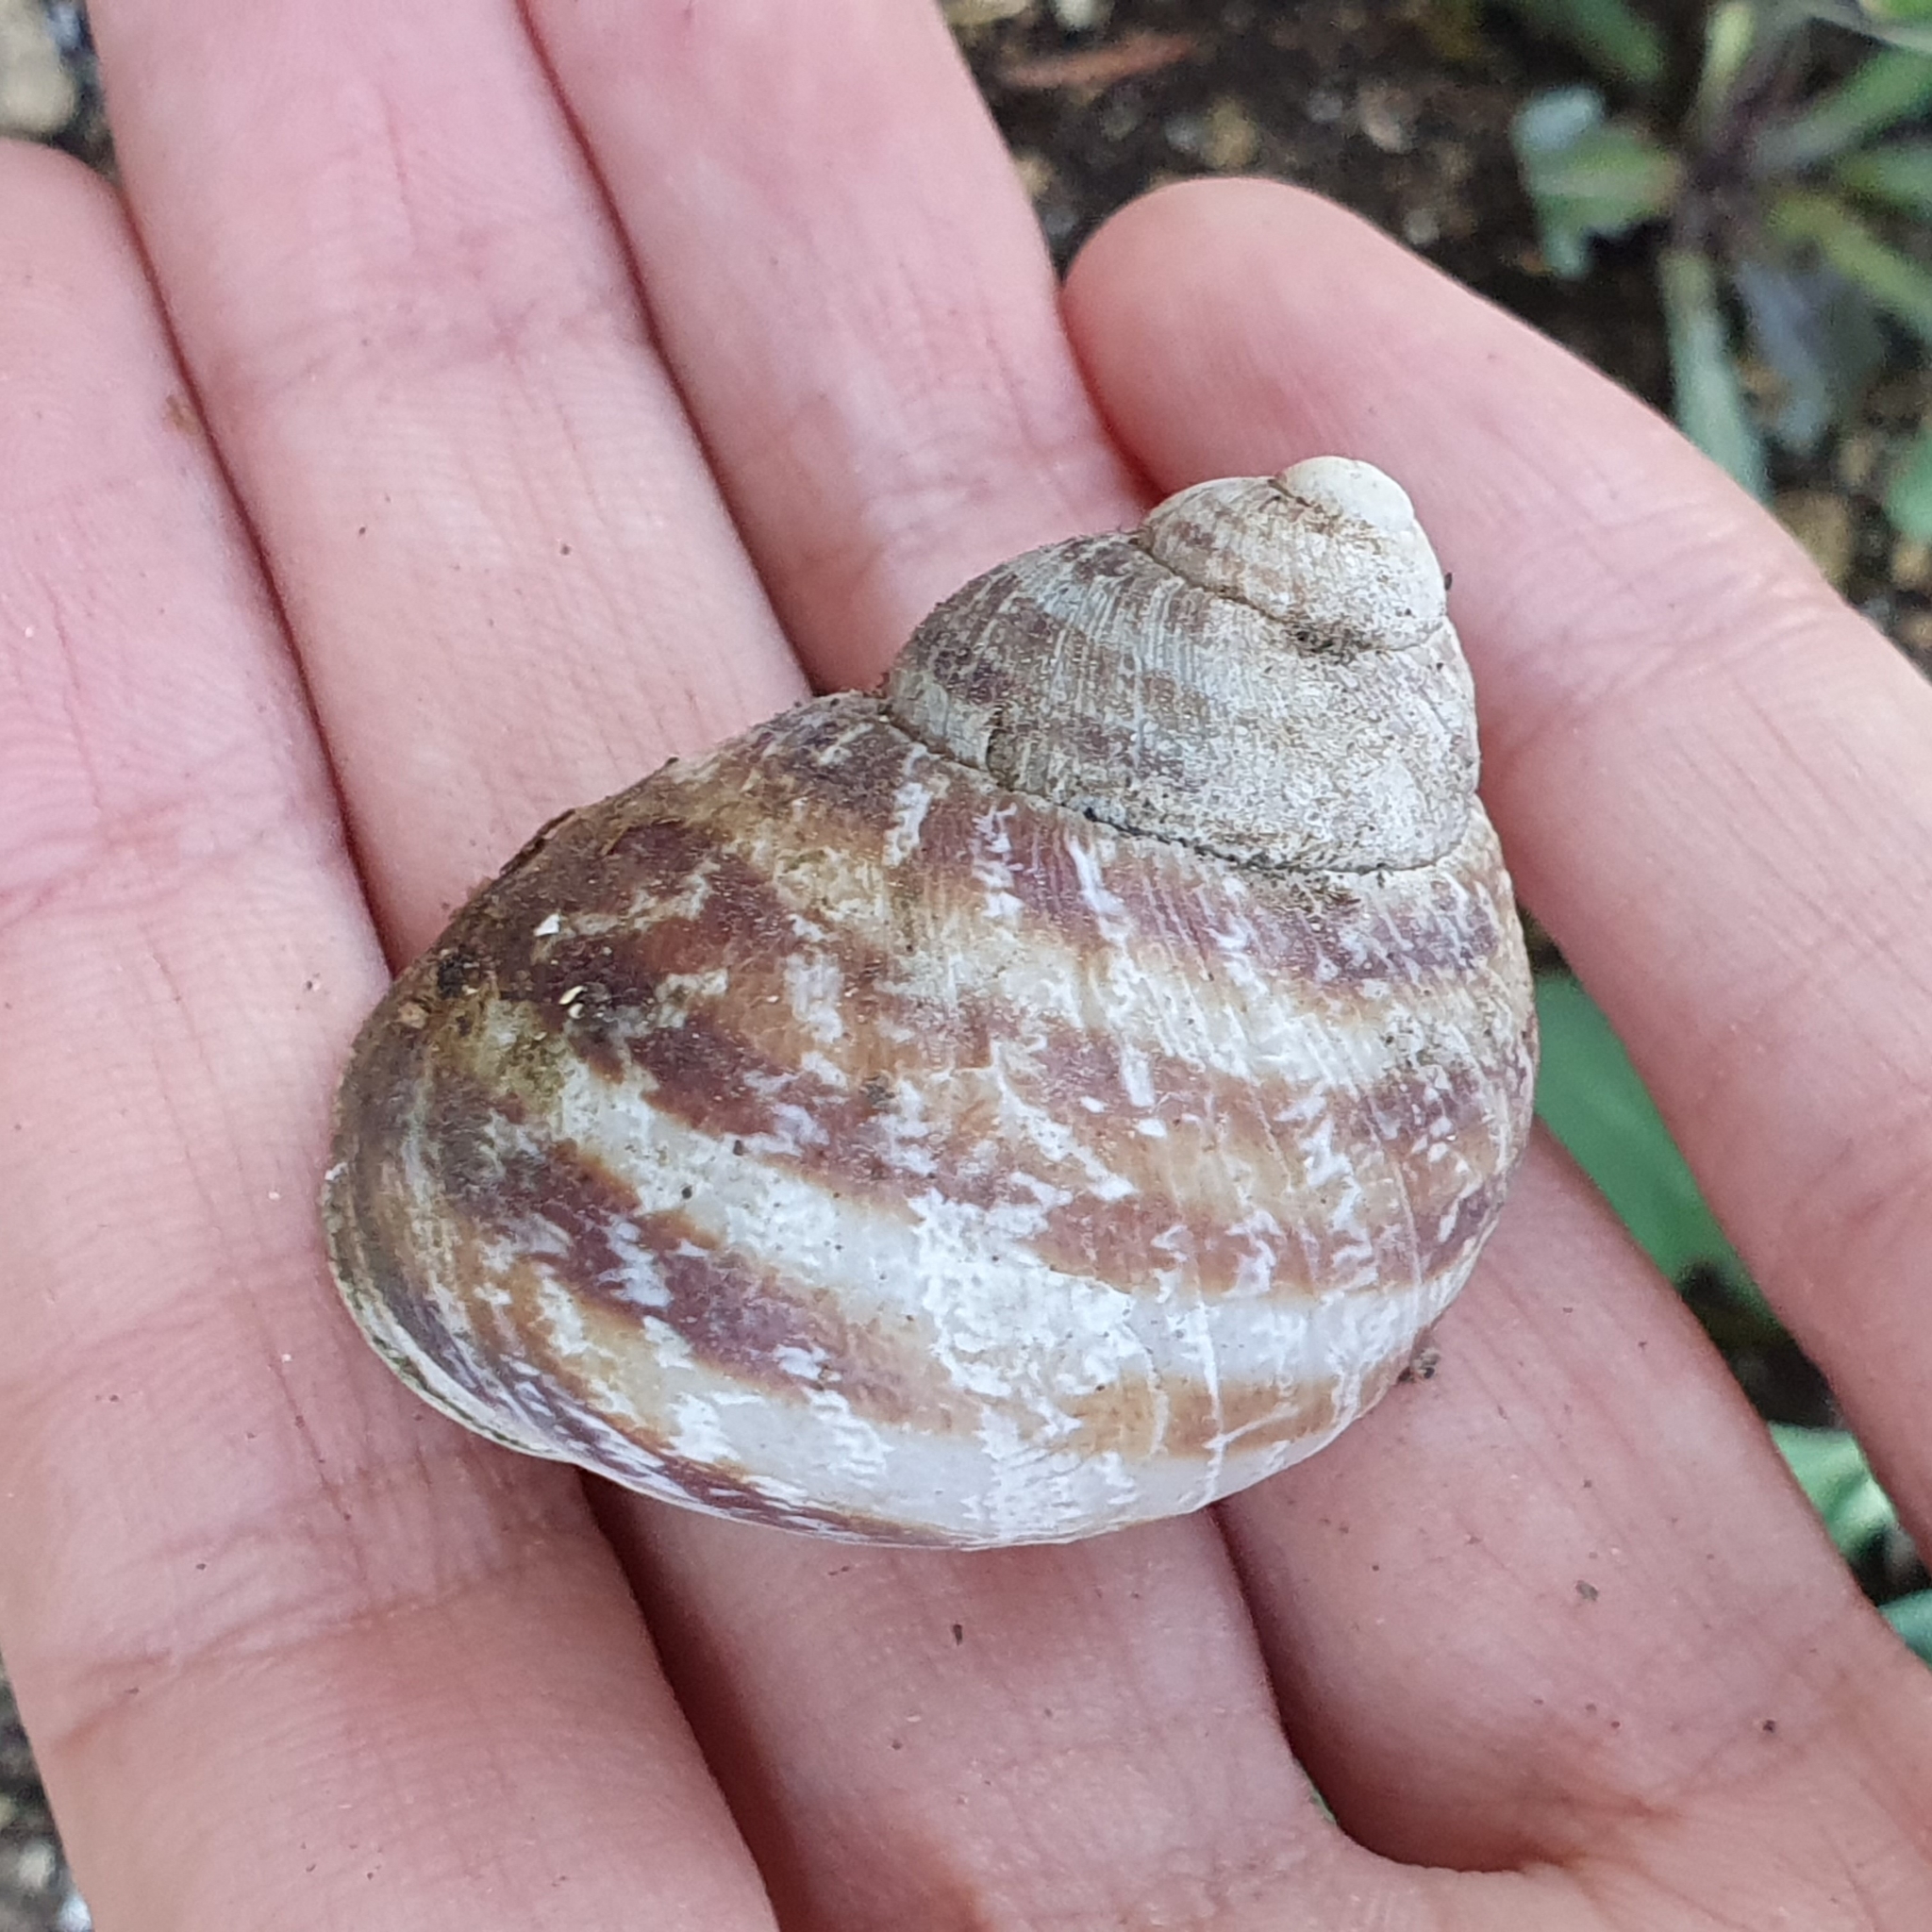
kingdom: Animalia
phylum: Mollusca
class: Gastropoda
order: Stylommatophora
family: Helicidae
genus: Cornu
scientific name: Cornu aspersum
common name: Brown garden snail
